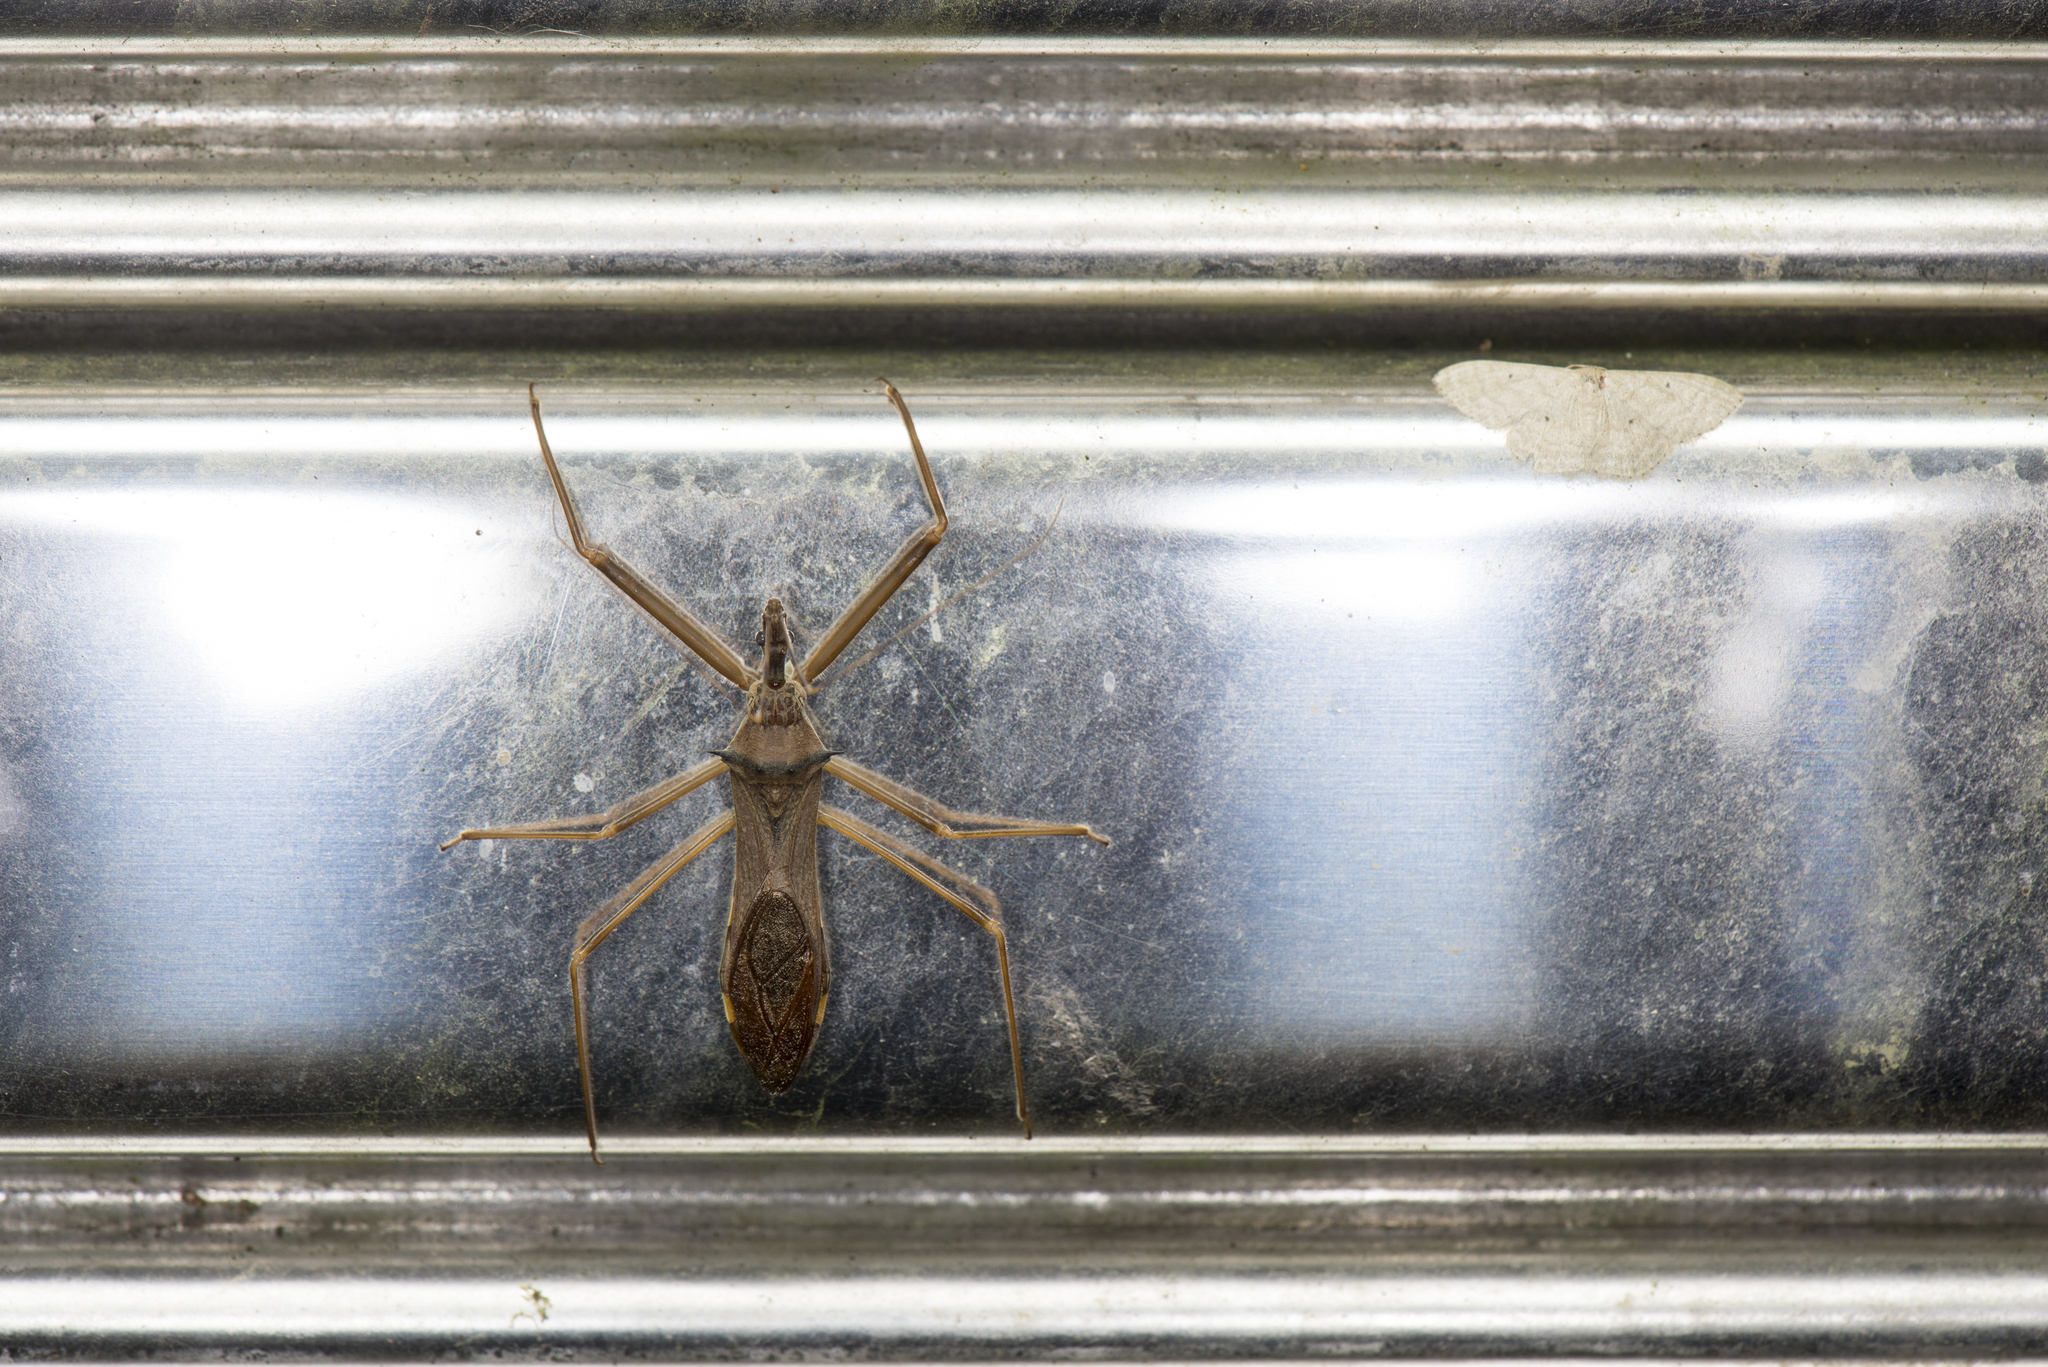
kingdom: Animalia
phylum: Arthropoda
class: Insecta
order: Hemiptera
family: Reduviidae
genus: Epidaus
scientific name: Epidaus sexspinus
